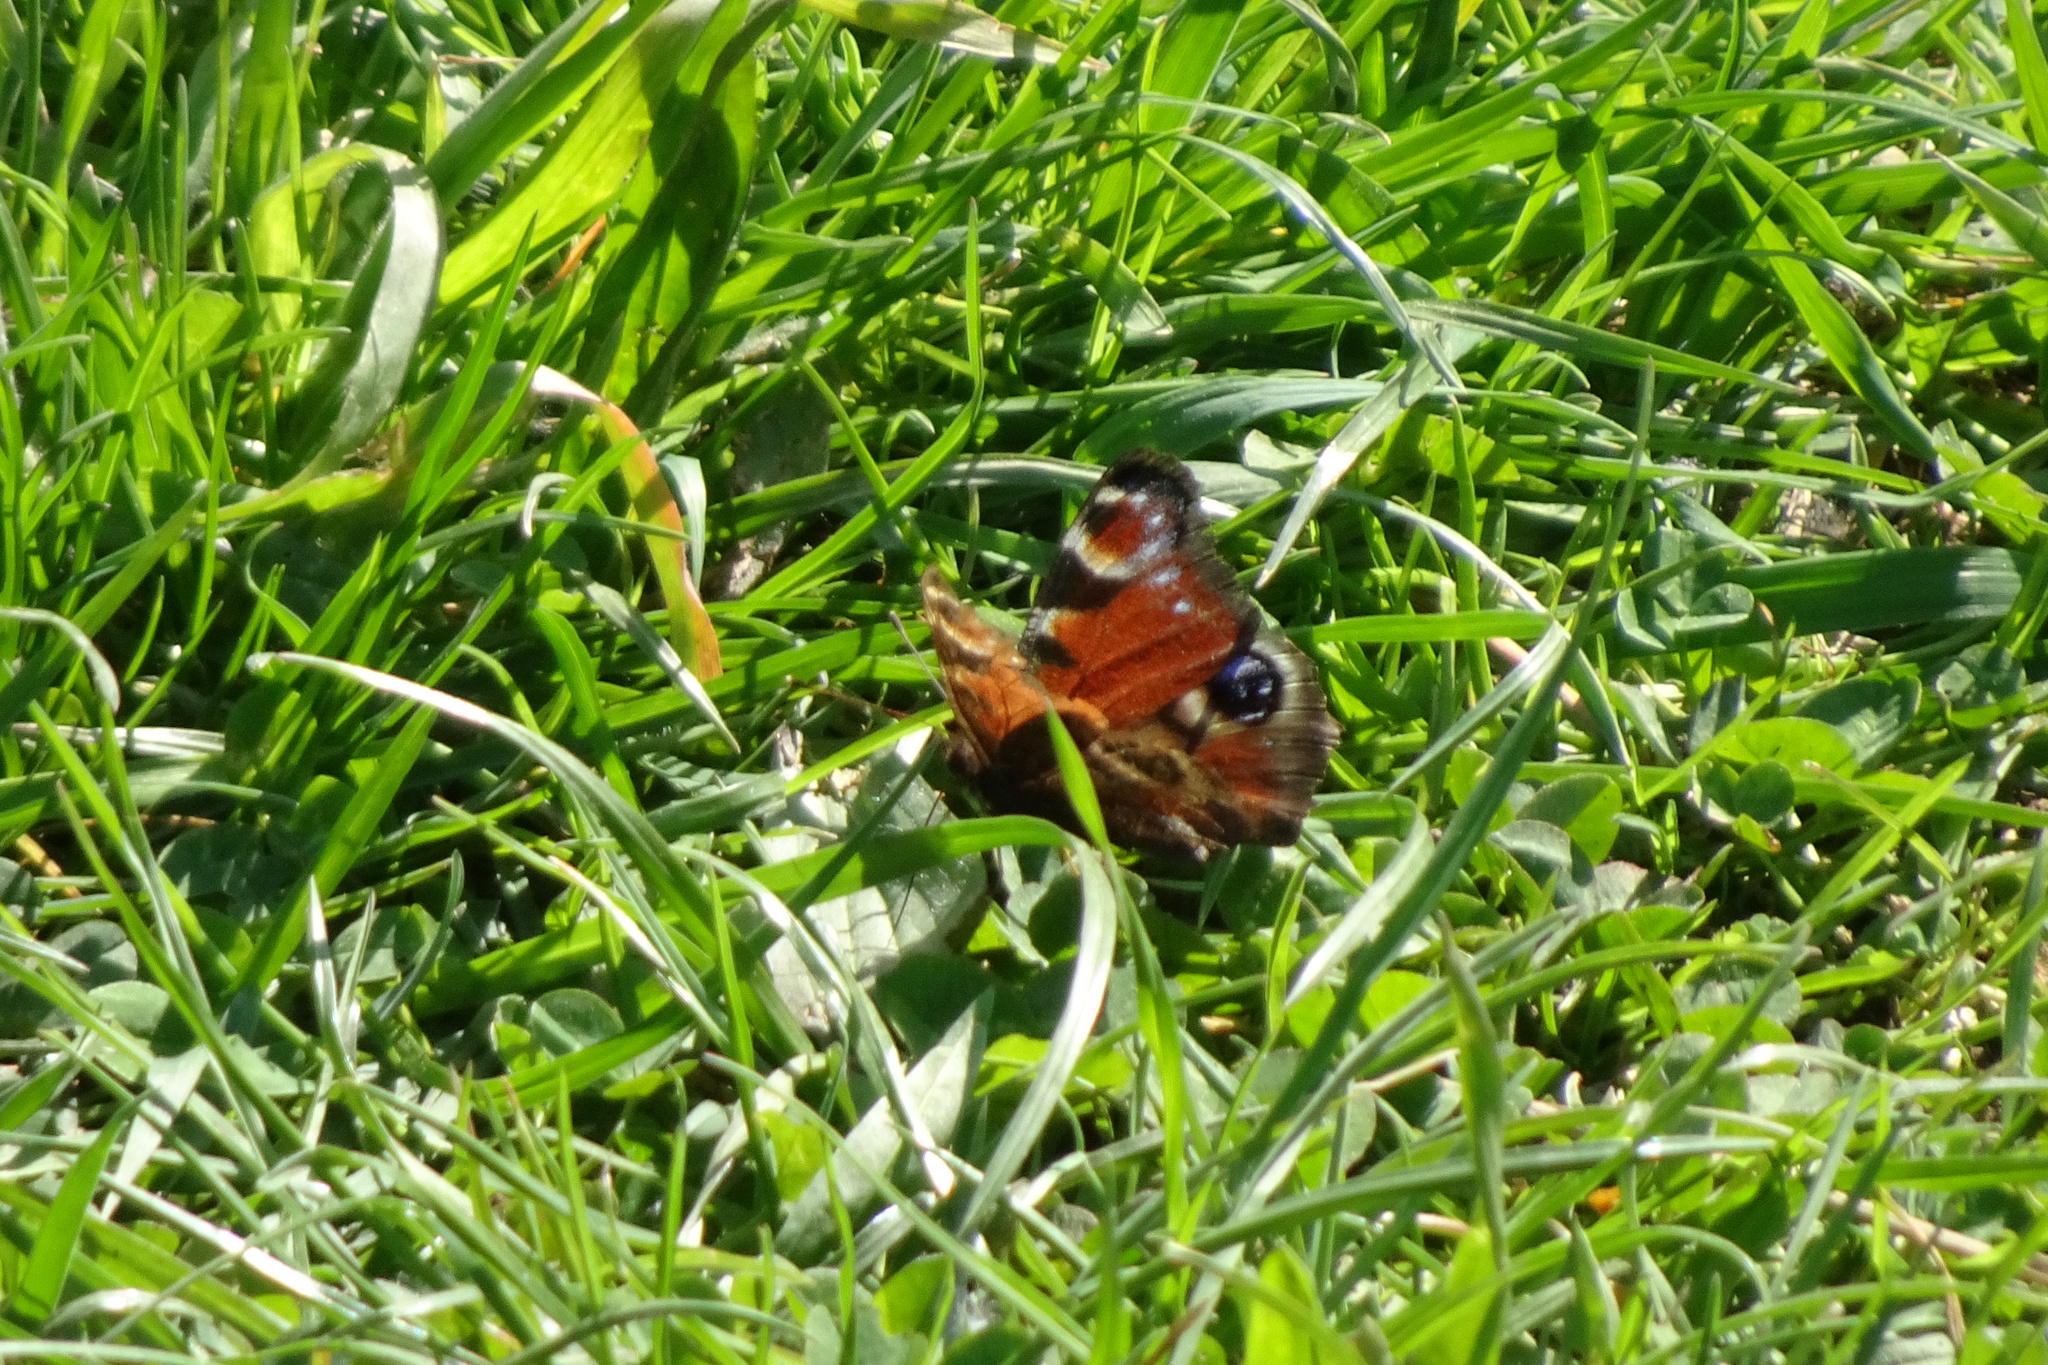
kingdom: Animalia
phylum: Arthropoda
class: Insecta
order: Lepidoptera
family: Nymphalidae
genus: Aglais
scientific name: Aglais io
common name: Peacock
